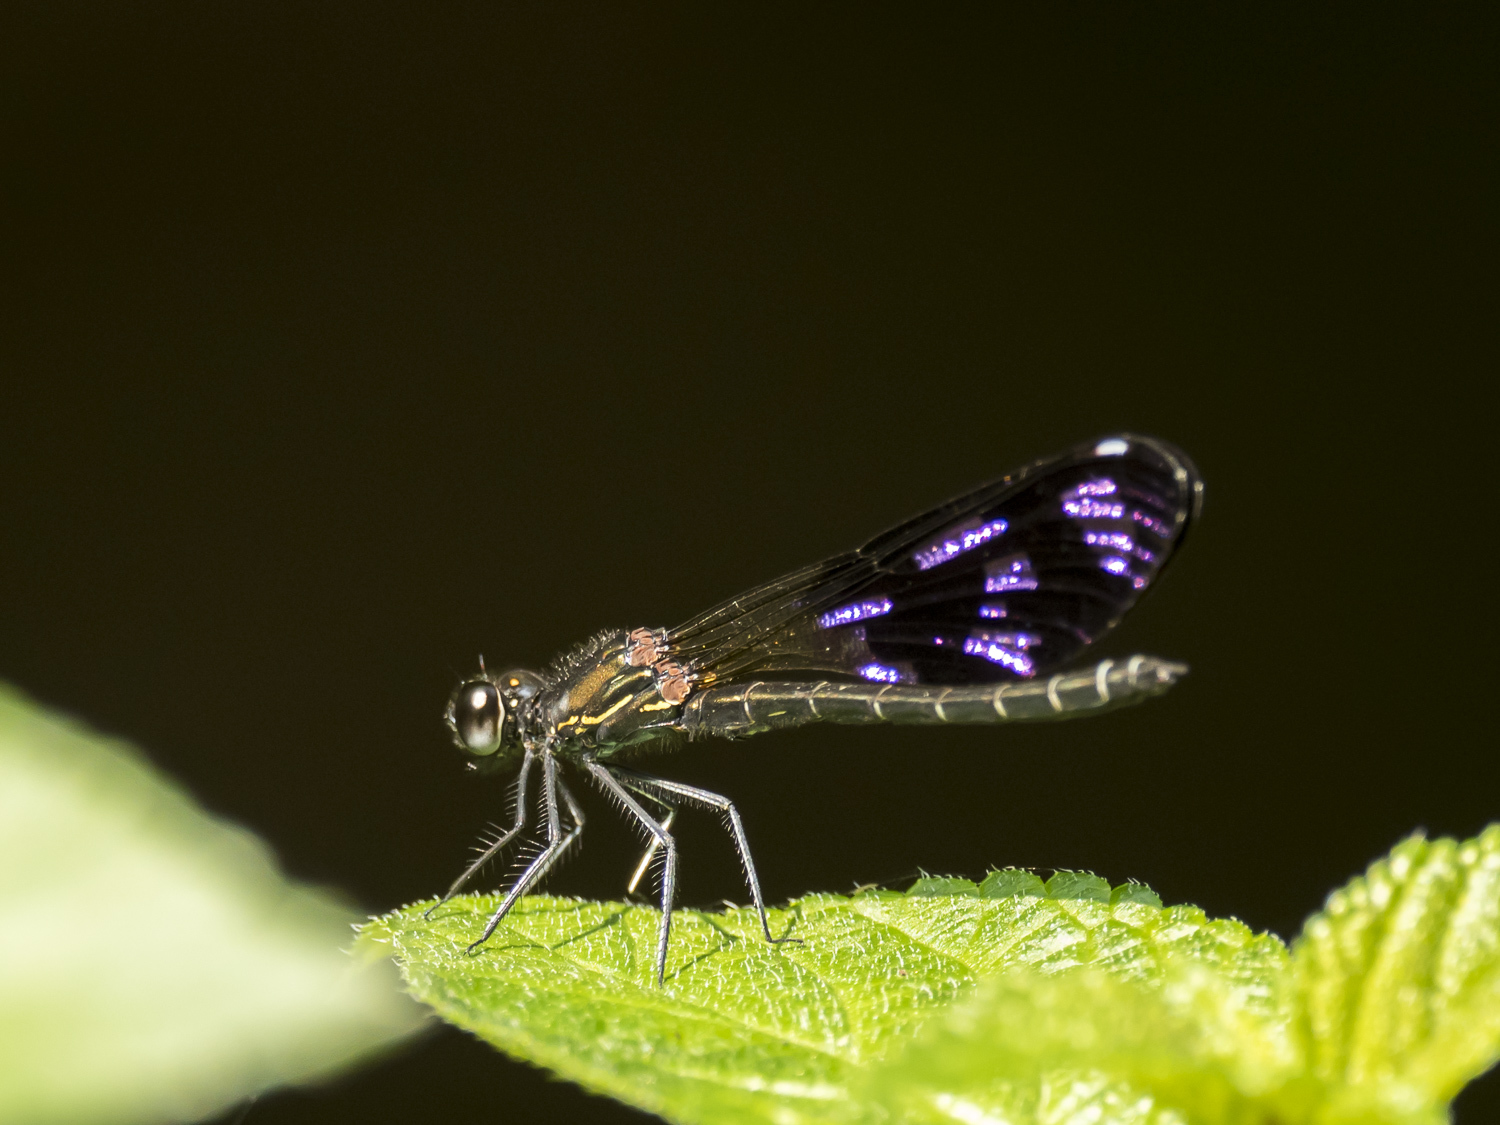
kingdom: Animalia
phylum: Arthropoda
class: Insecta
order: Odonata
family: Chlorocyphidae
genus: Aristocypha
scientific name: Aristocypha quadrimaculata
